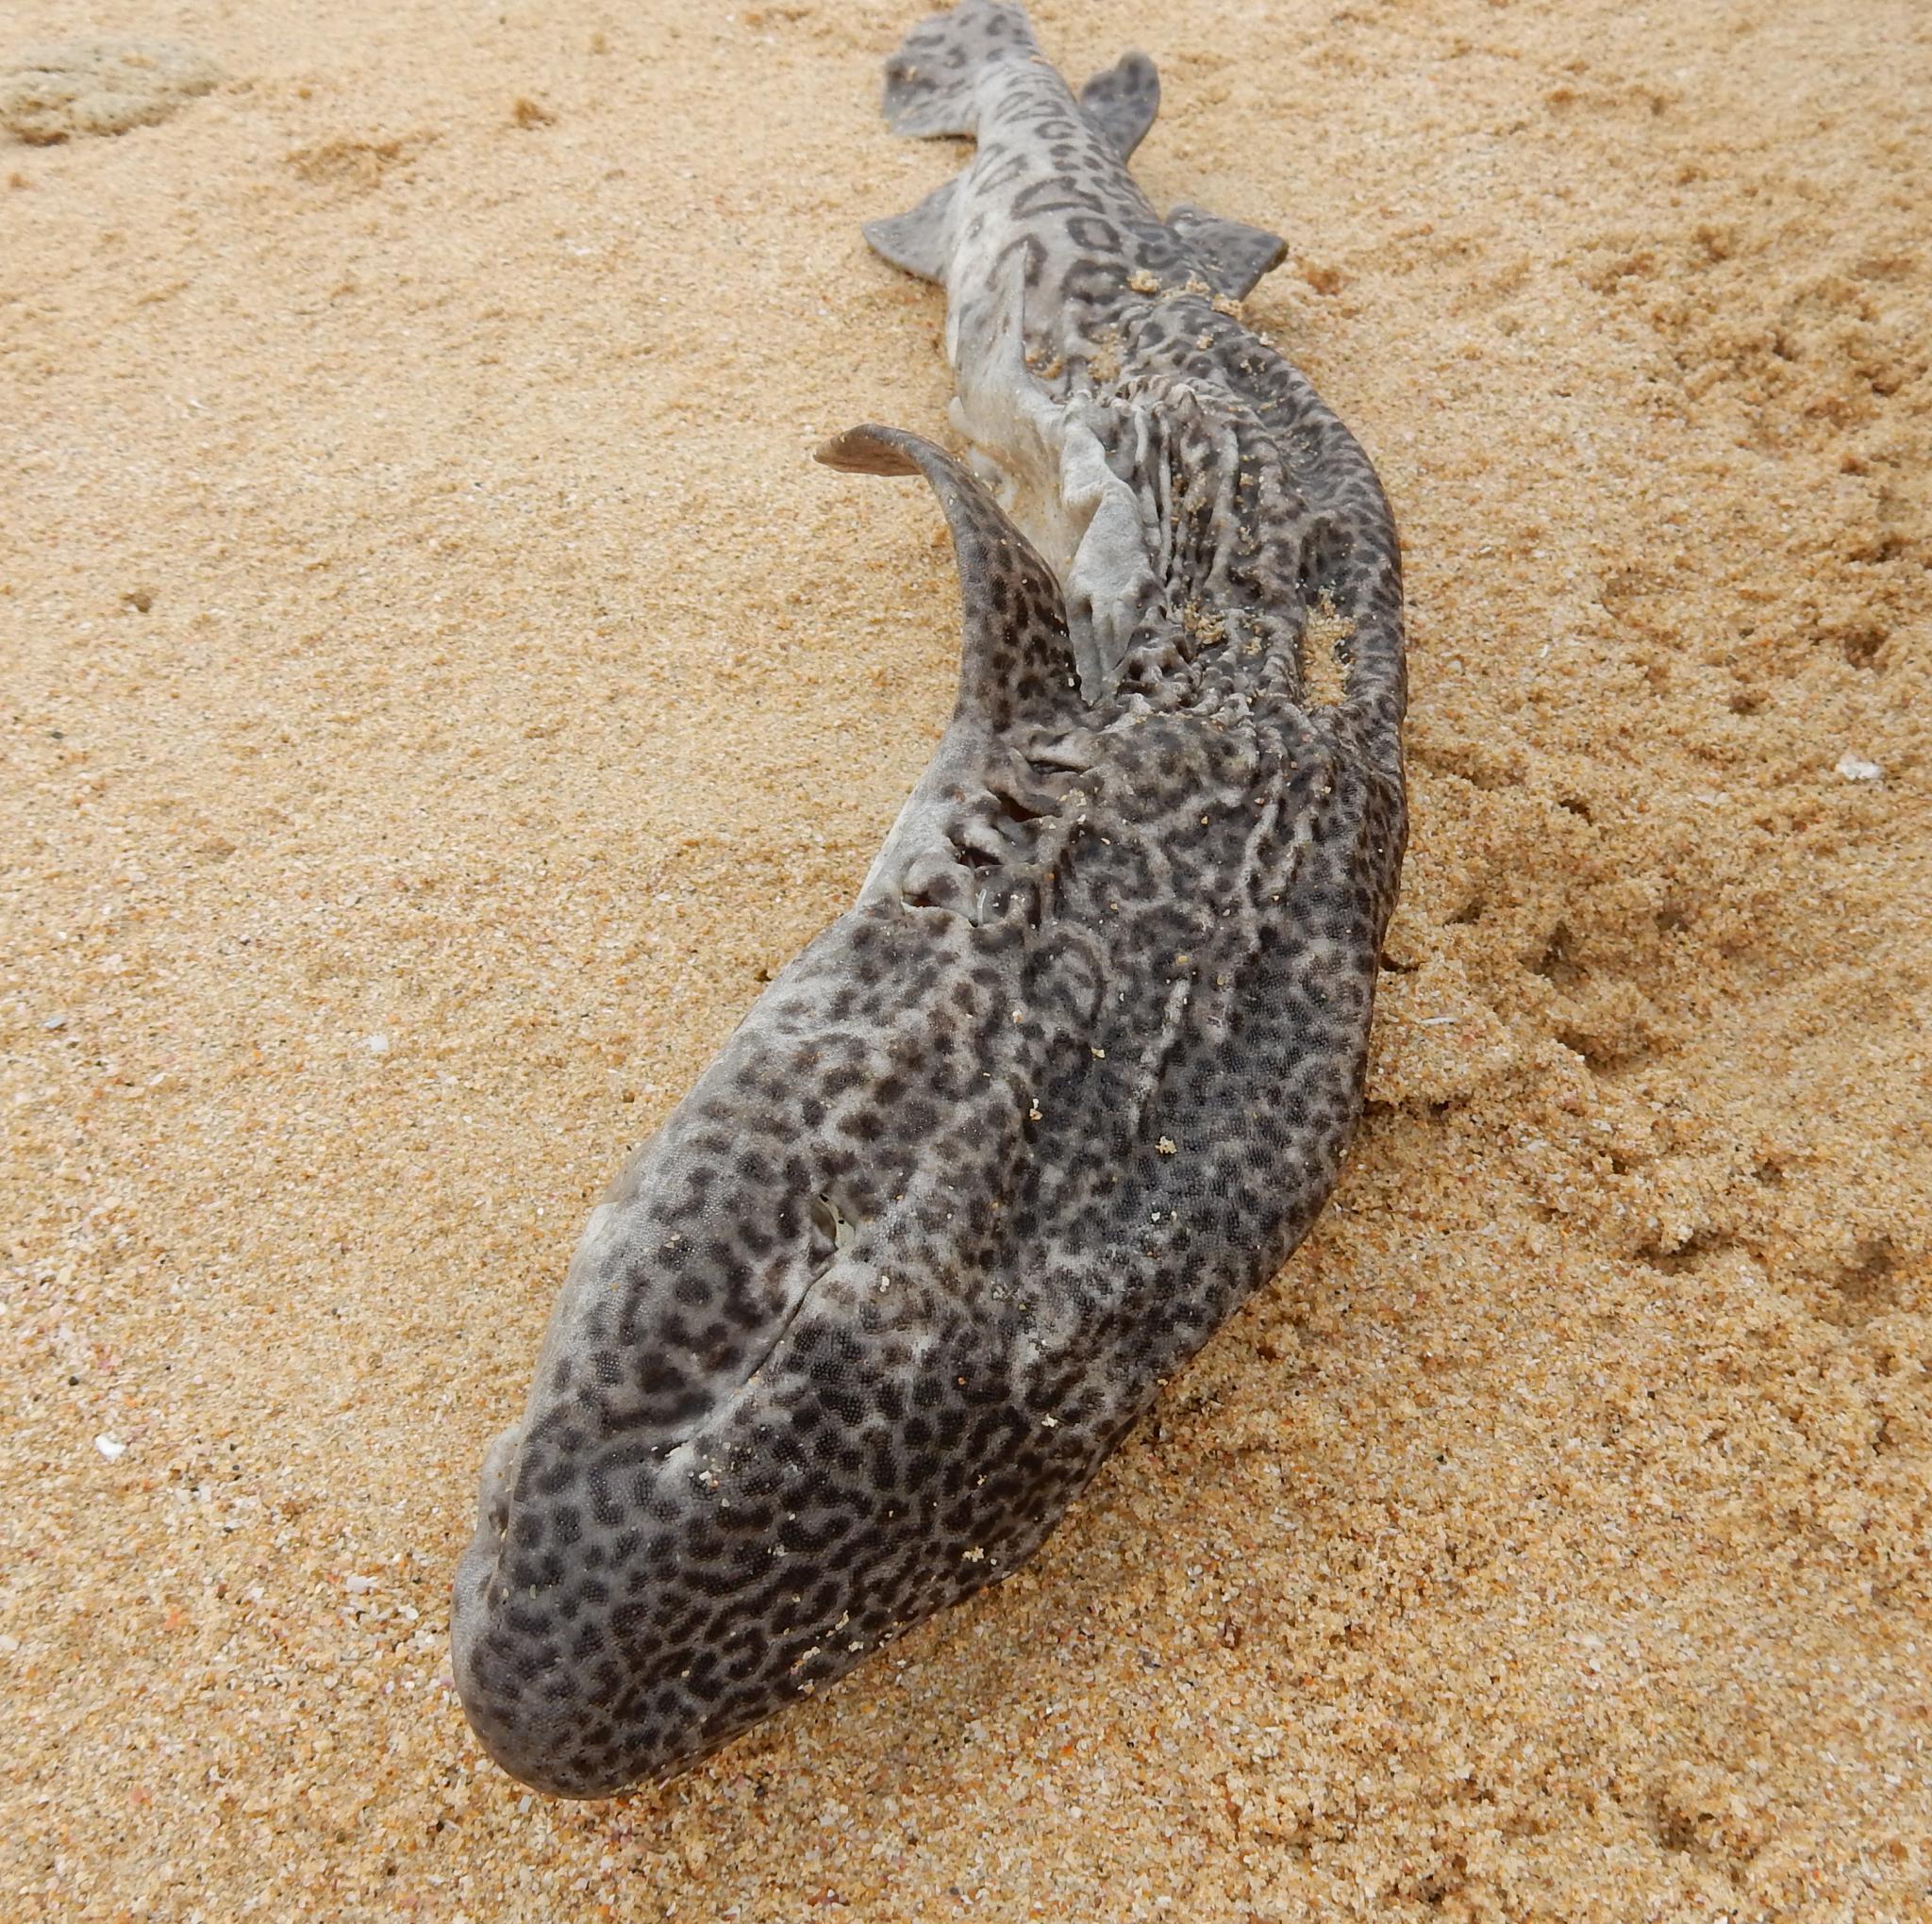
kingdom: Animalia
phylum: Chordata
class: Elasmobranchii
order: Carcharhiniformes
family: Scyliorhinidae
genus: Poroderma
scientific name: Poroderma pantherinum
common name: Leopard catshark
